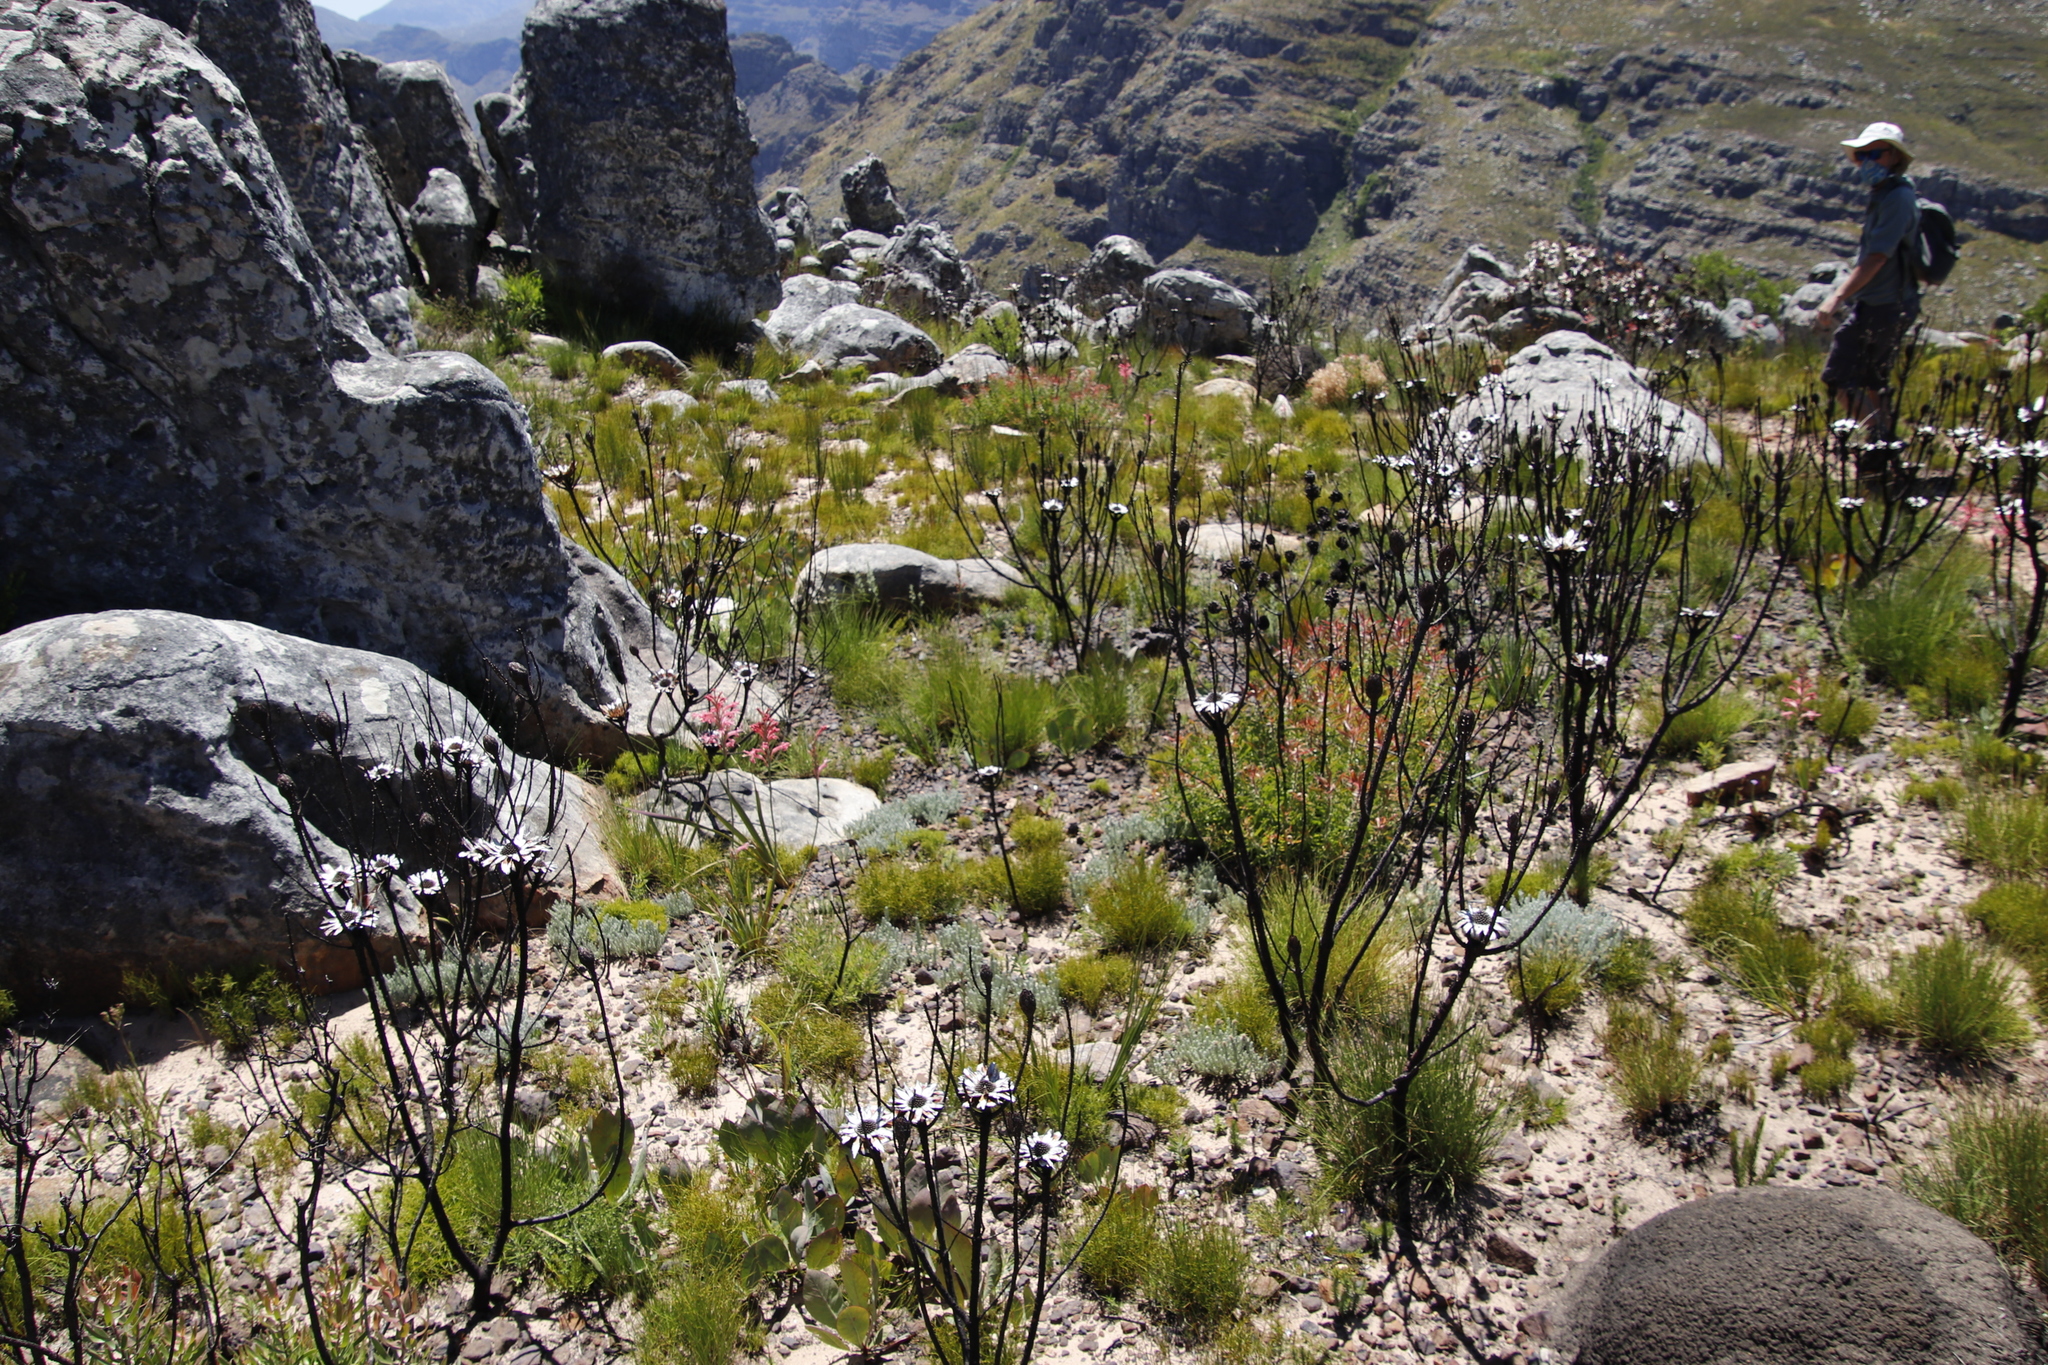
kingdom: Plantae
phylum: Tracheophyta
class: Magnoliopsida
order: Proteales
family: Proteaceae
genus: Protea
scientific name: Protea repens
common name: Sugarbush
